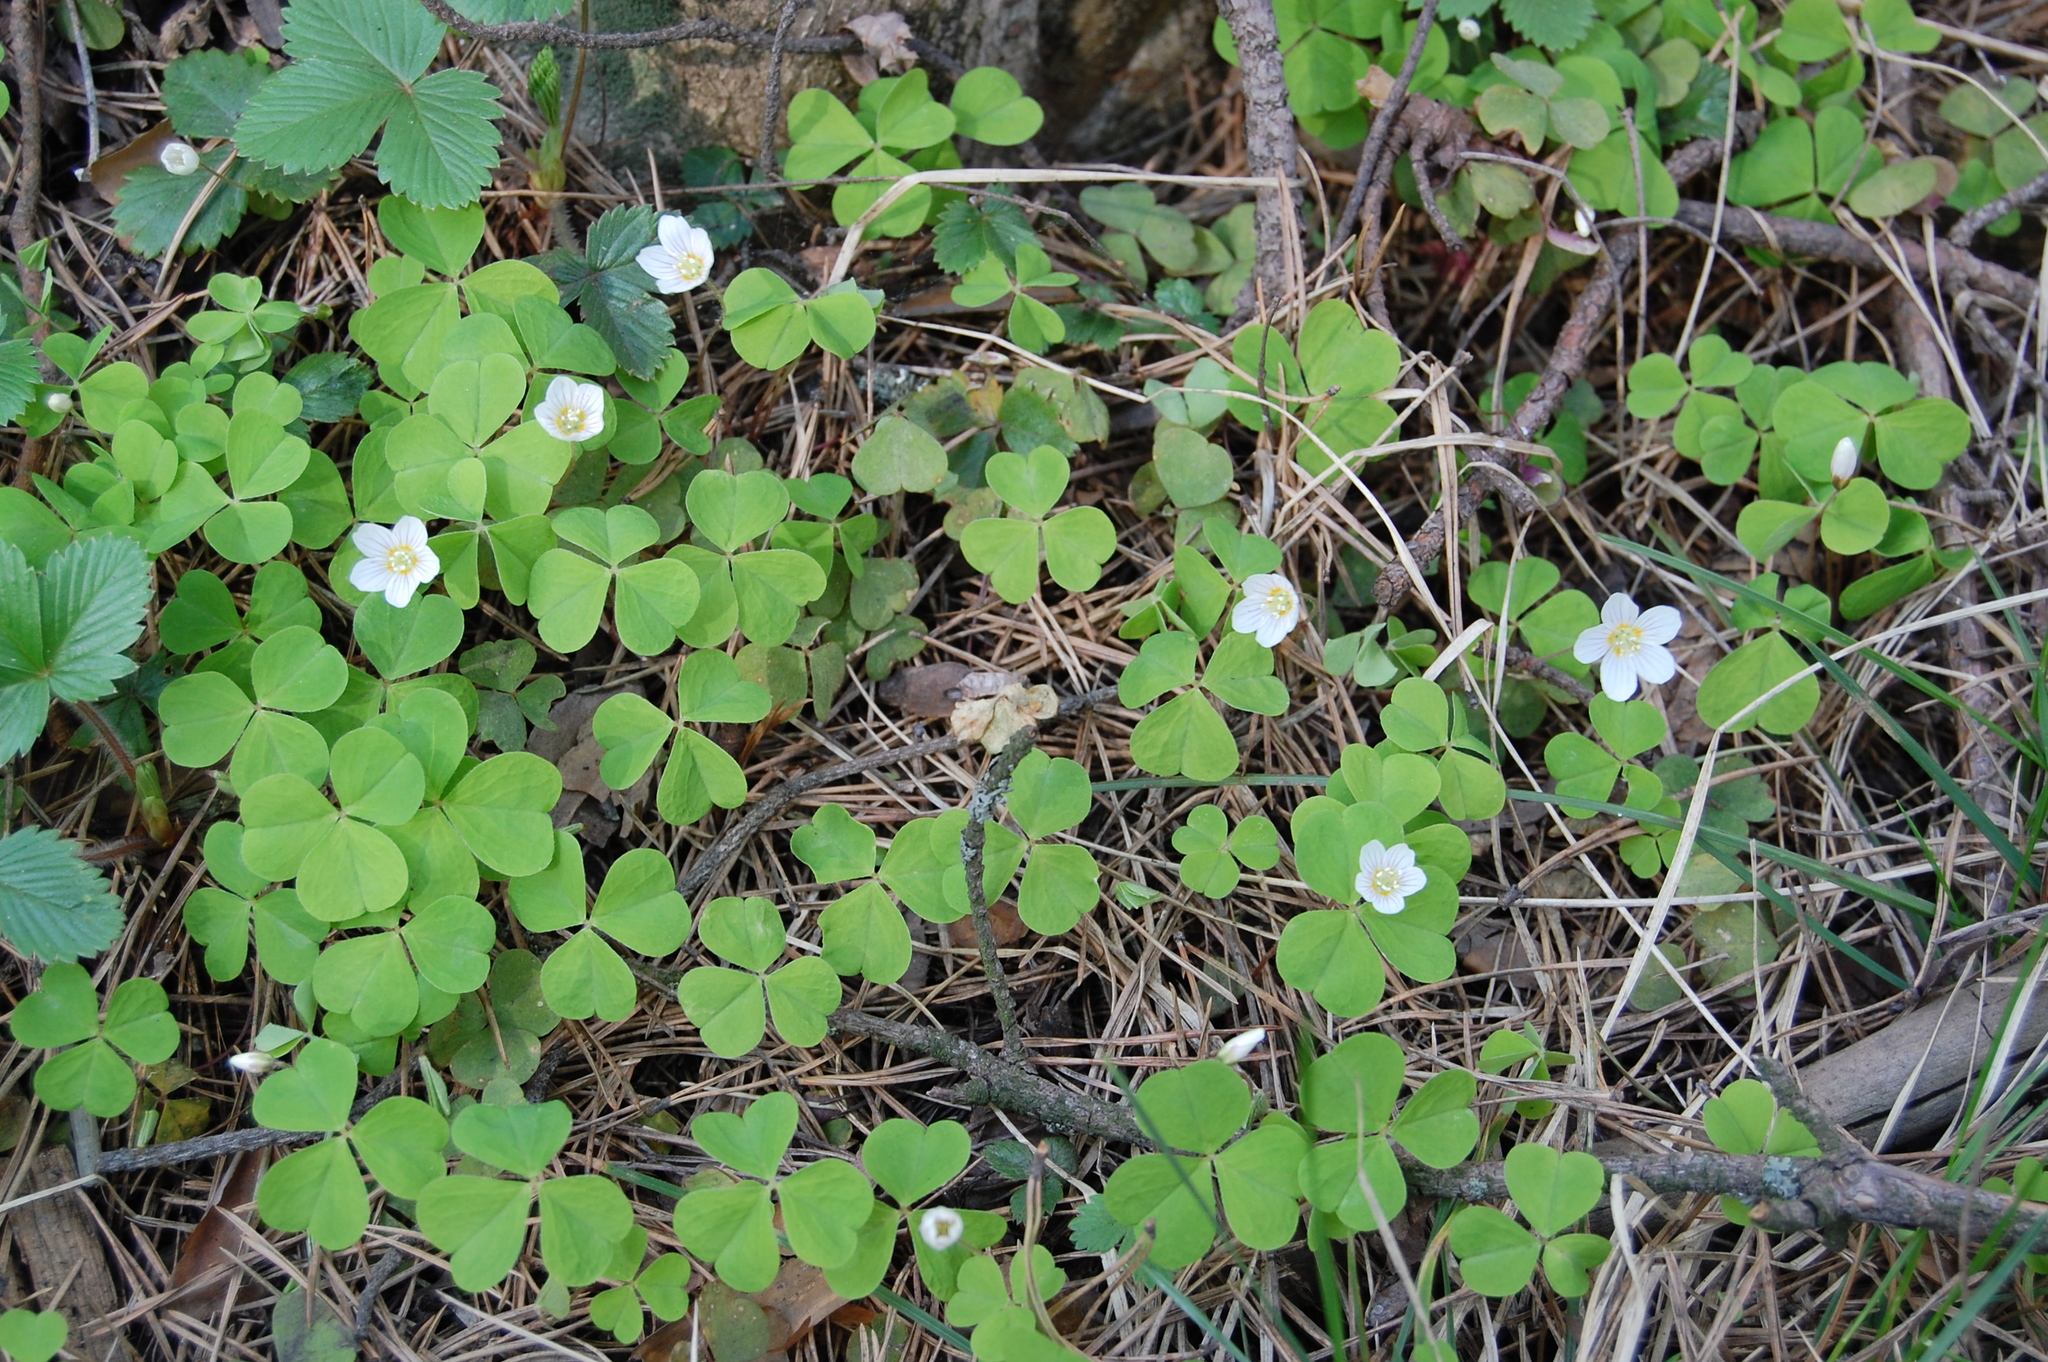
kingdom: Plantae
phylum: Tracheophyta
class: Magnoliopsida
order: Oxalidales
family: Oxalidaceae
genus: Oxalis
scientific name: Oxalis acetosella
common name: Wood-sorrel
